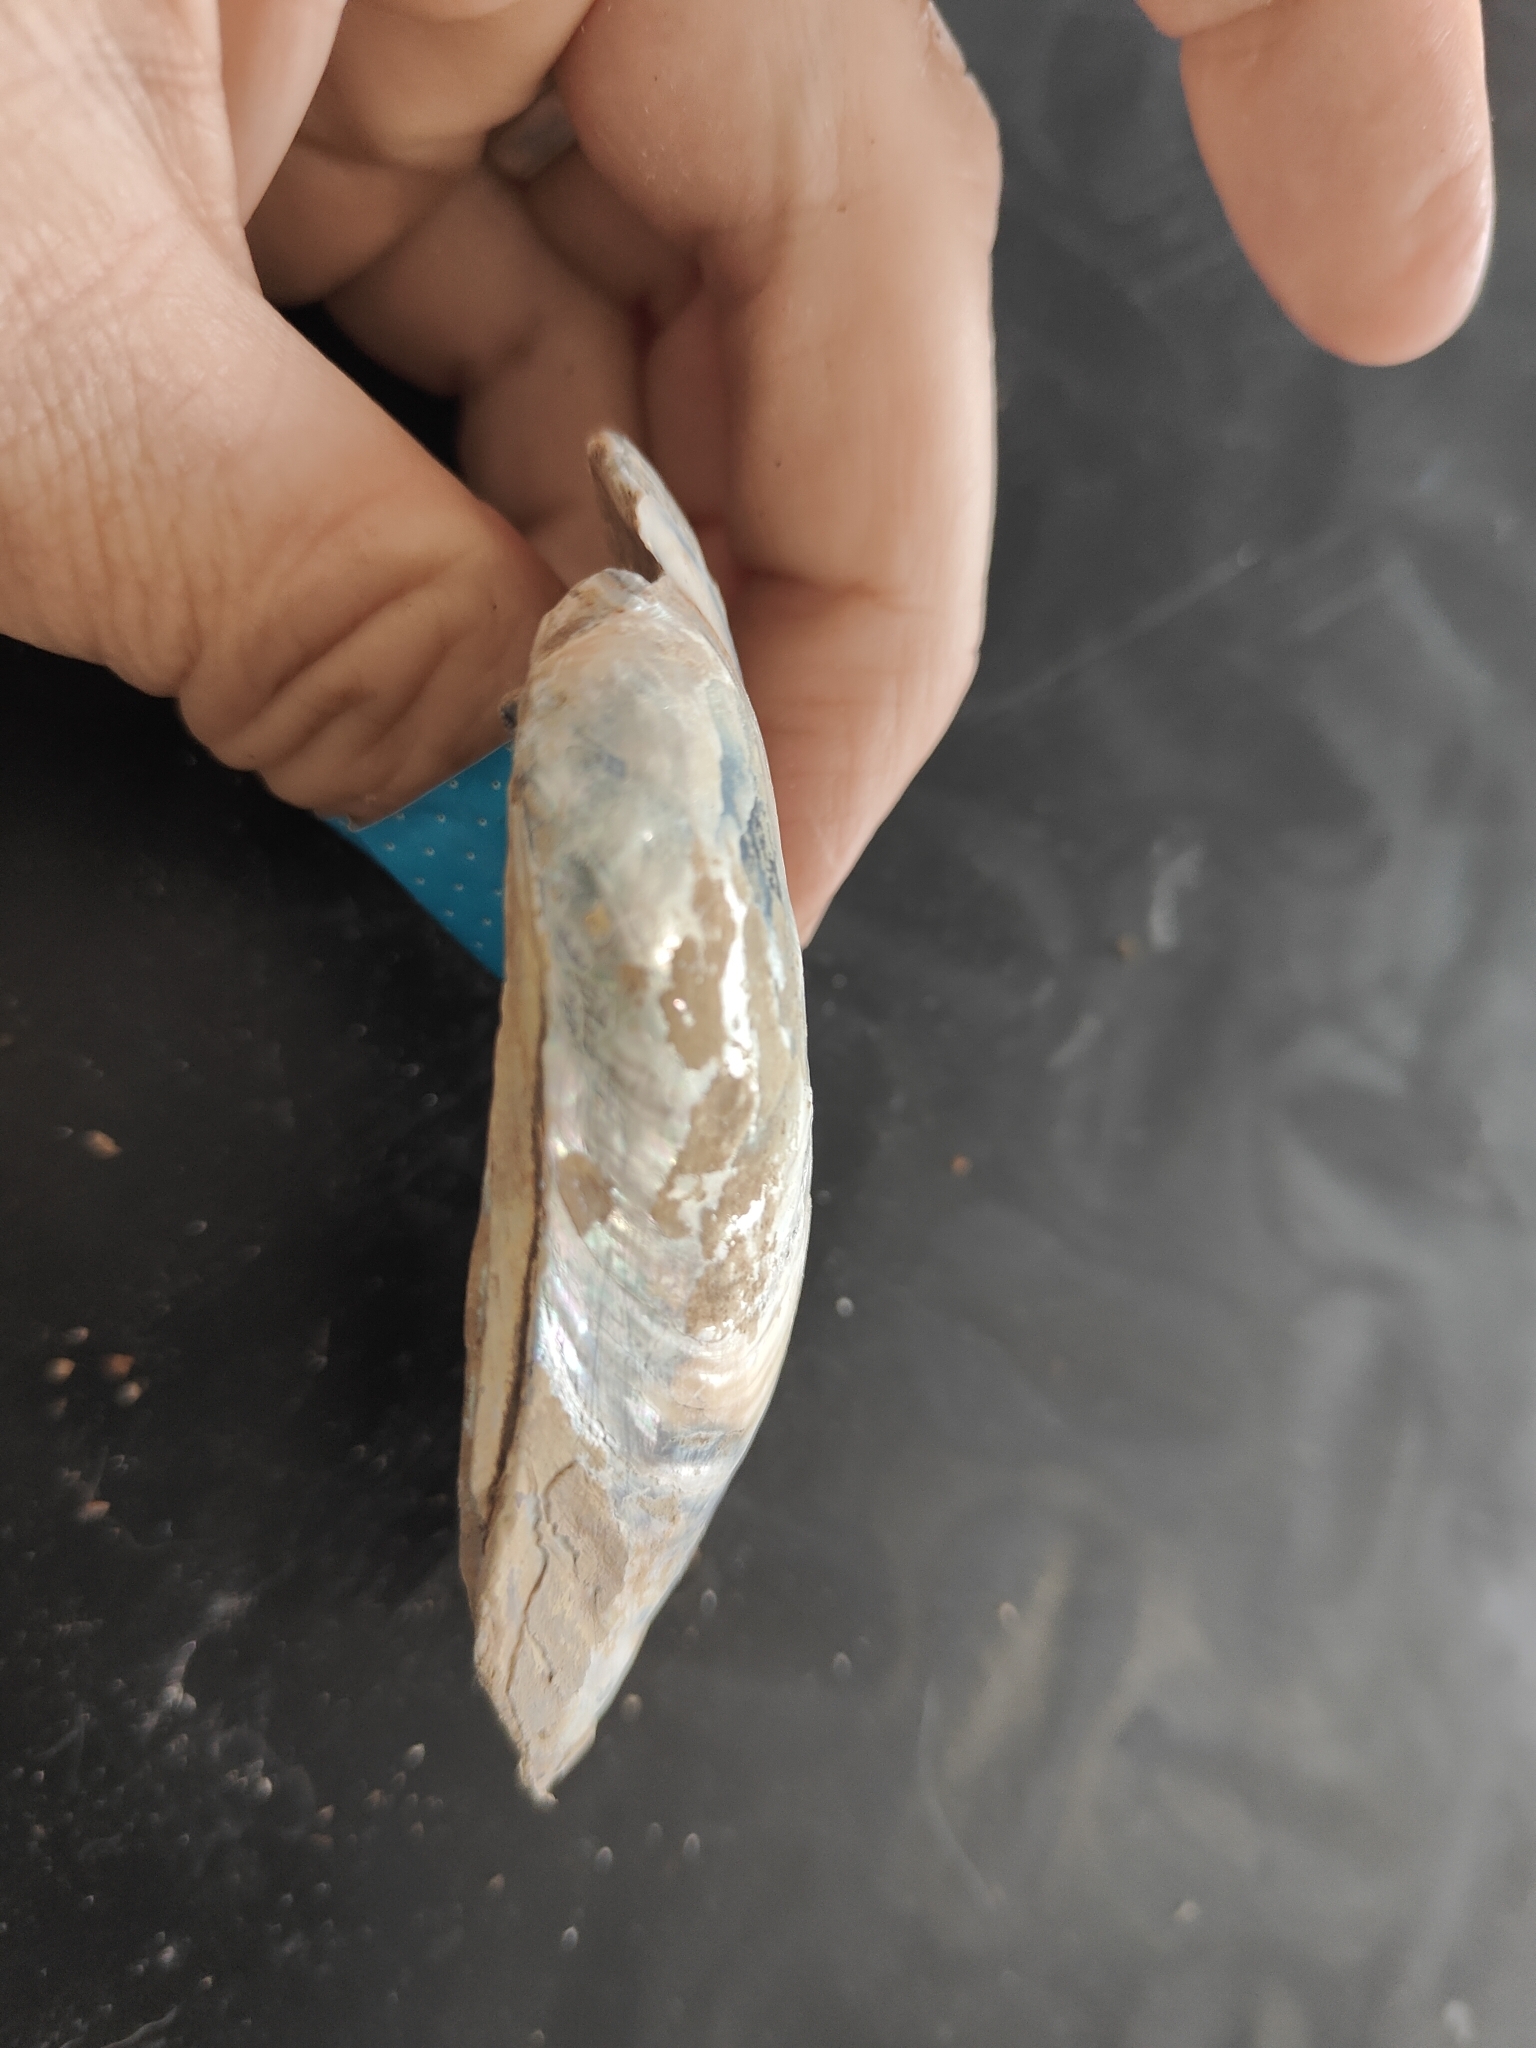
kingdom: Animalia
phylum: Mollusca
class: Bivalvia
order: Unionida
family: Unionidae
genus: Lampsilis
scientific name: Lampsilis siliquoidea
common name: Fatmucket
